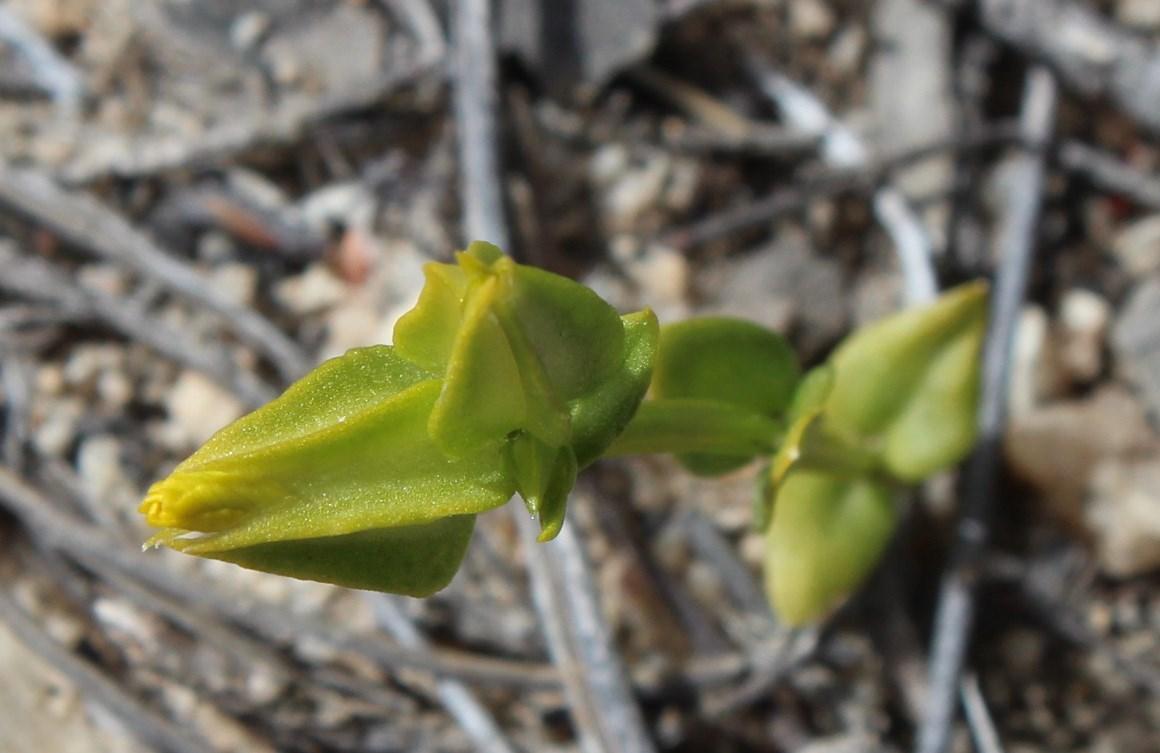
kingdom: Plantae
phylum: Tracheophyta
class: Magnoliopsida
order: Gentianales
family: Gentianaceae
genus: Sebaea
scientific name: Sebaea exacoides
